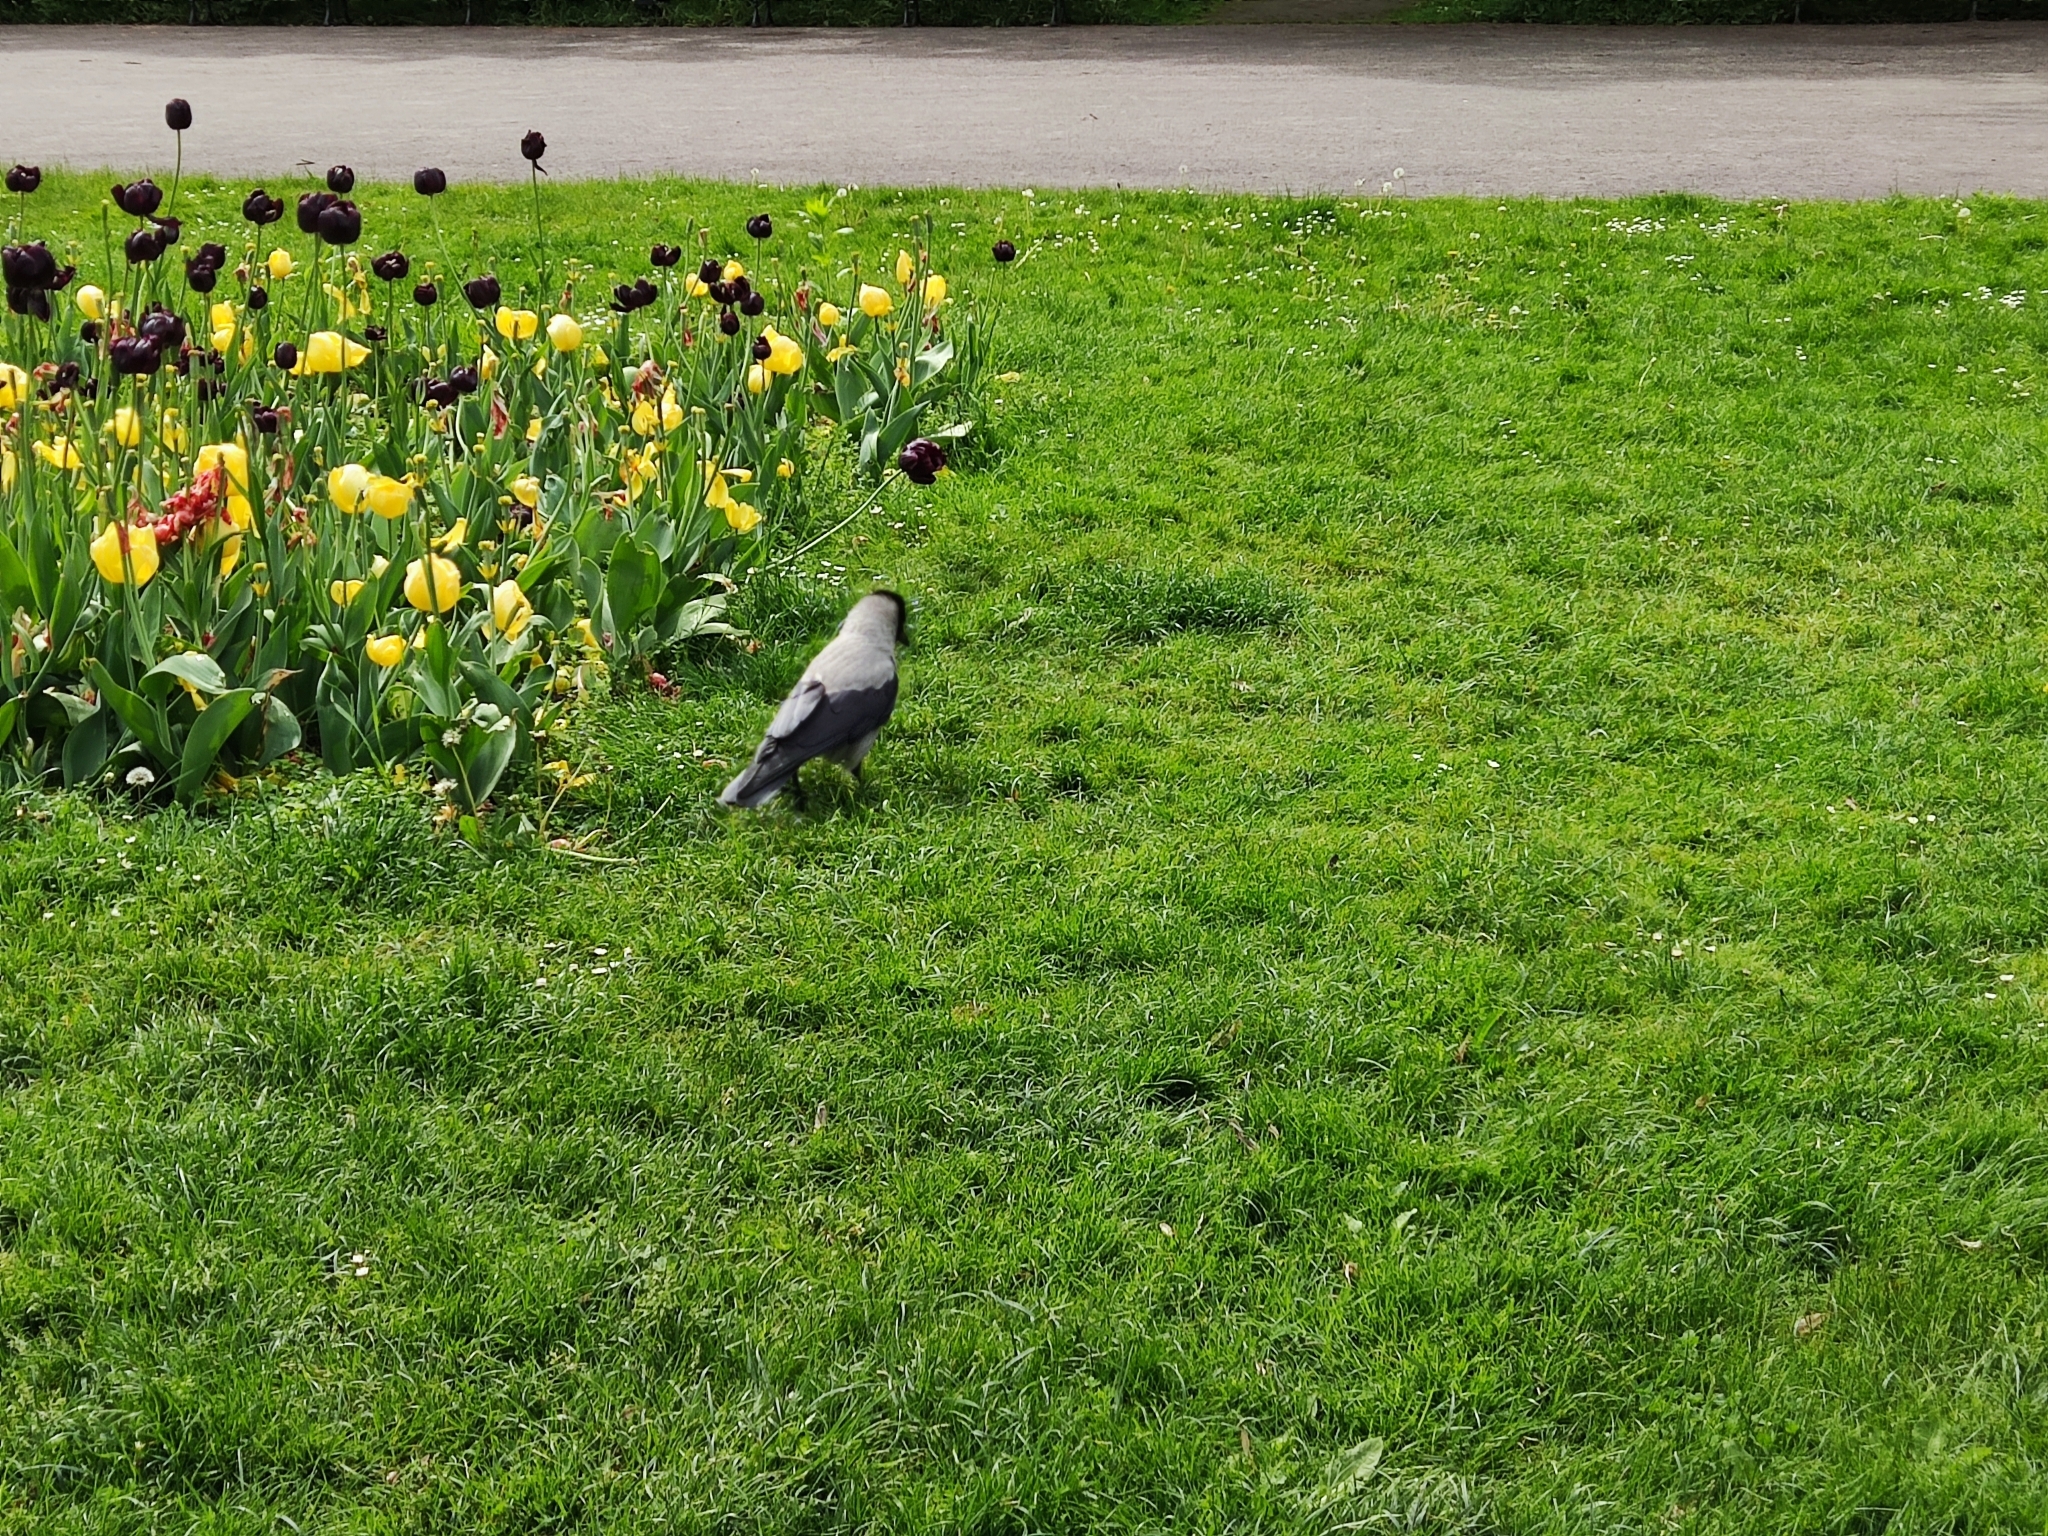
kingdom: Animalia
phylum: Chordata
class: Aves
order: Passeriformes
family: Corvidae
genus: Corvus
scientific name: Corvus cornix
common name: Hooded crow
